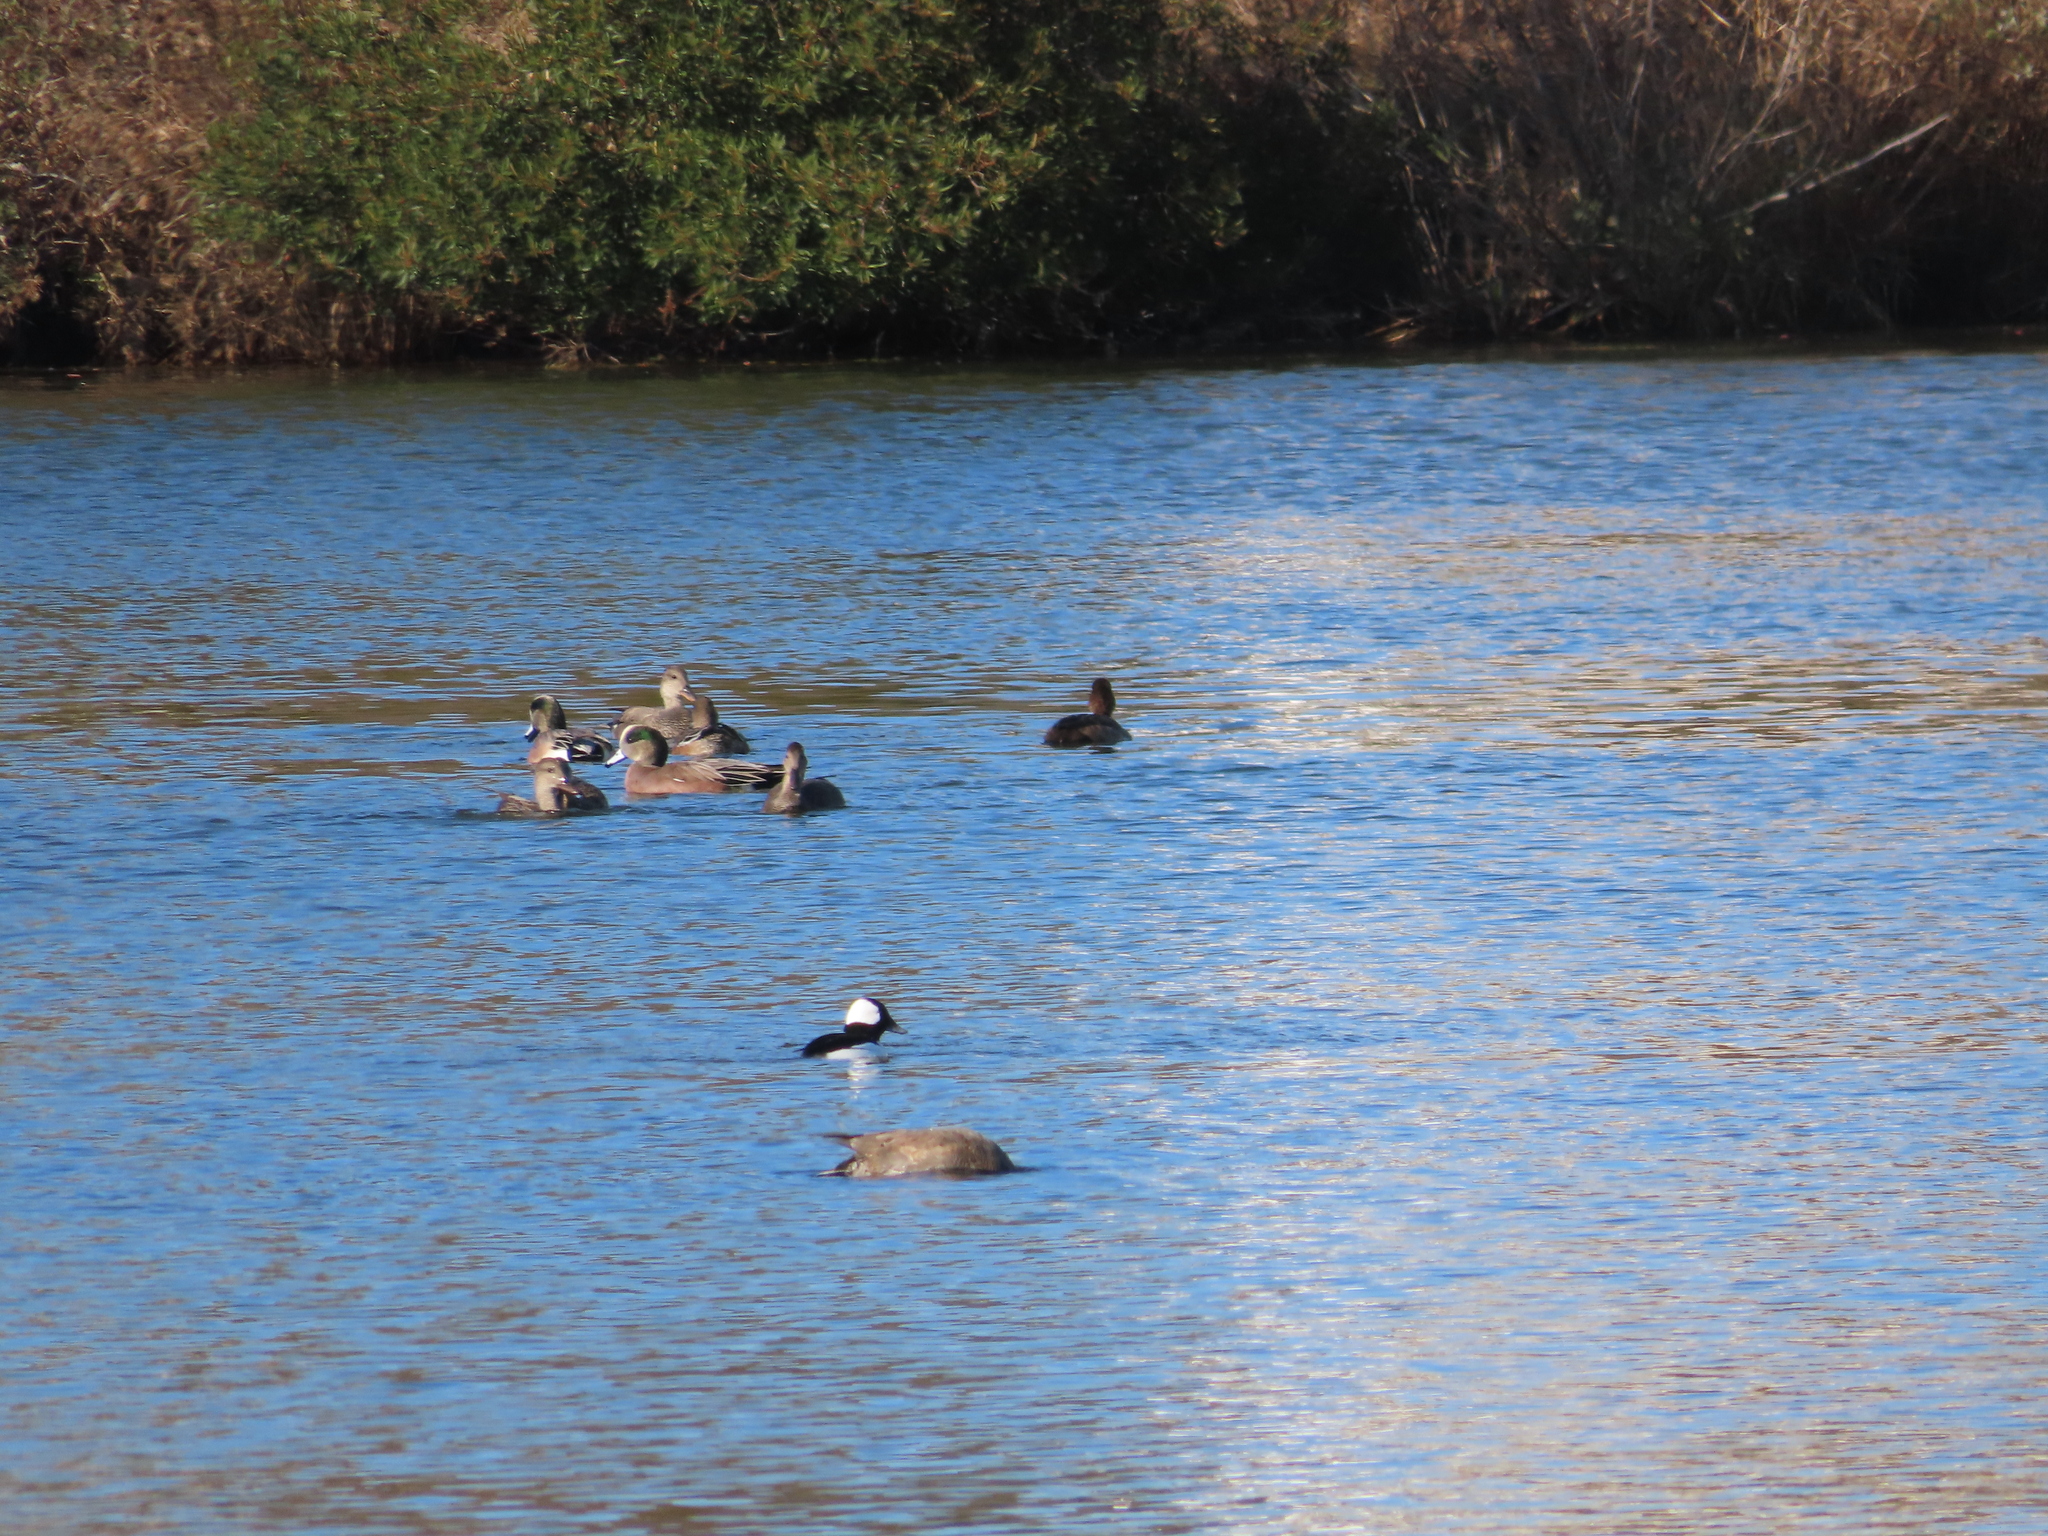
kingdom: Animalia
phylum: Chordata
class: Aves
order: Anseriformes
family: Anatidae
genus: Bucephala
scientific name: Bucephala albeola
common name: Bufflehead
